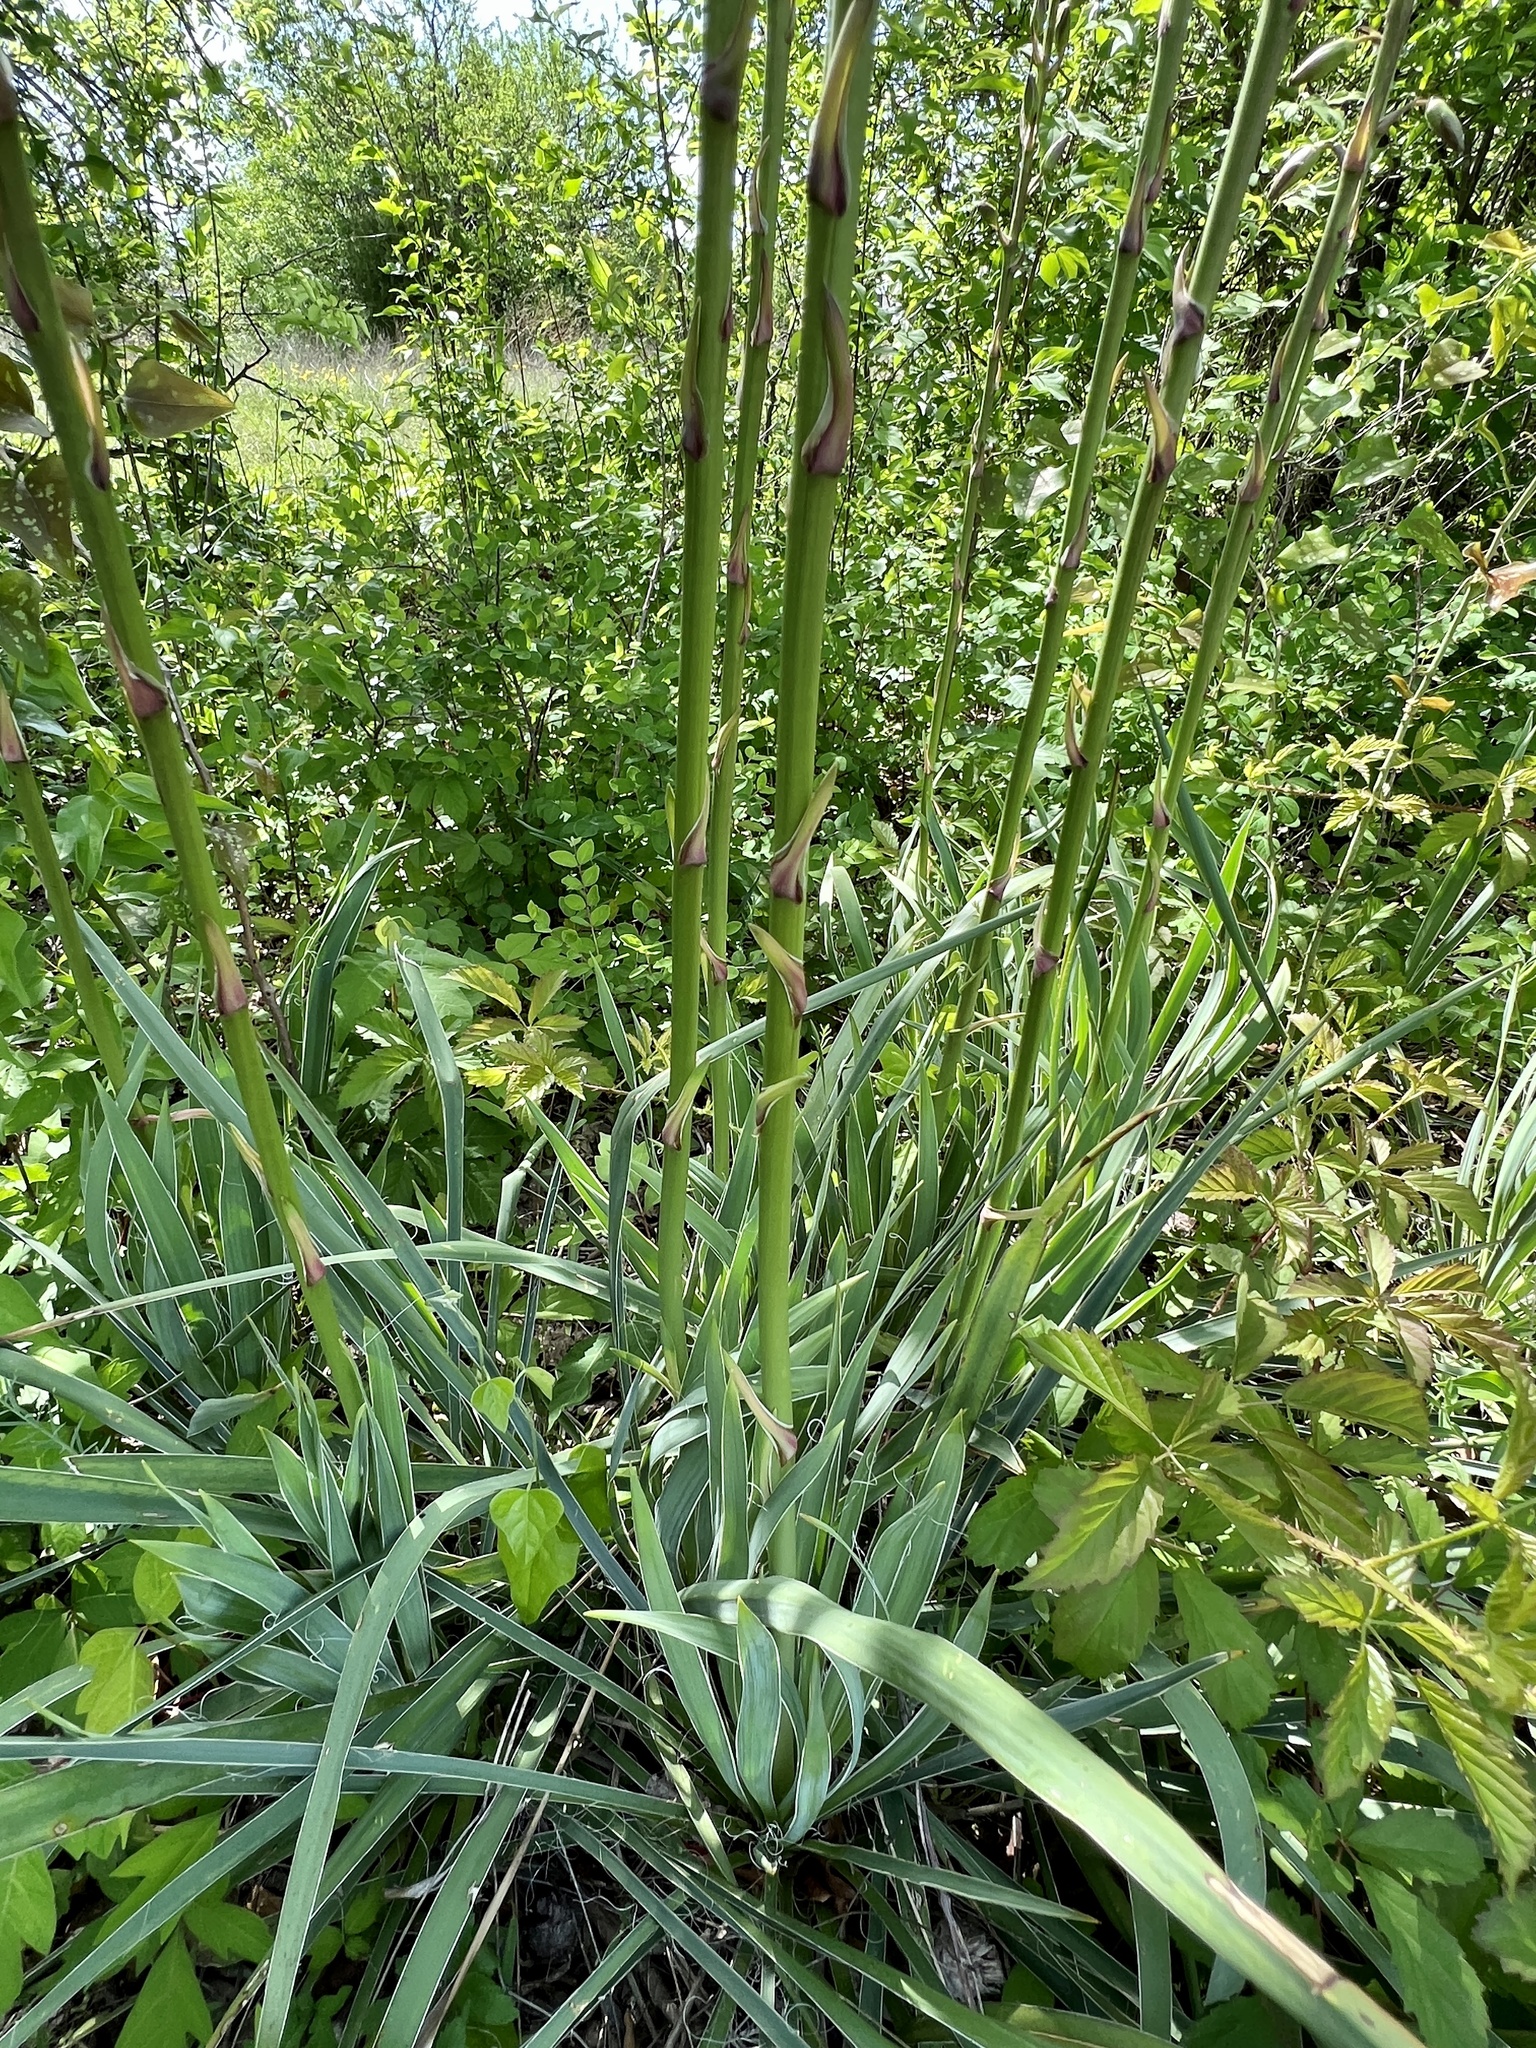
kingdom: Plantae
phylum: Tracheophyta
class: Liliopsida
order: Asparagales
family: Asparagaceae
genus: Yucca
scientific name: Yucca arkansana
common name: Arkansas yucca
